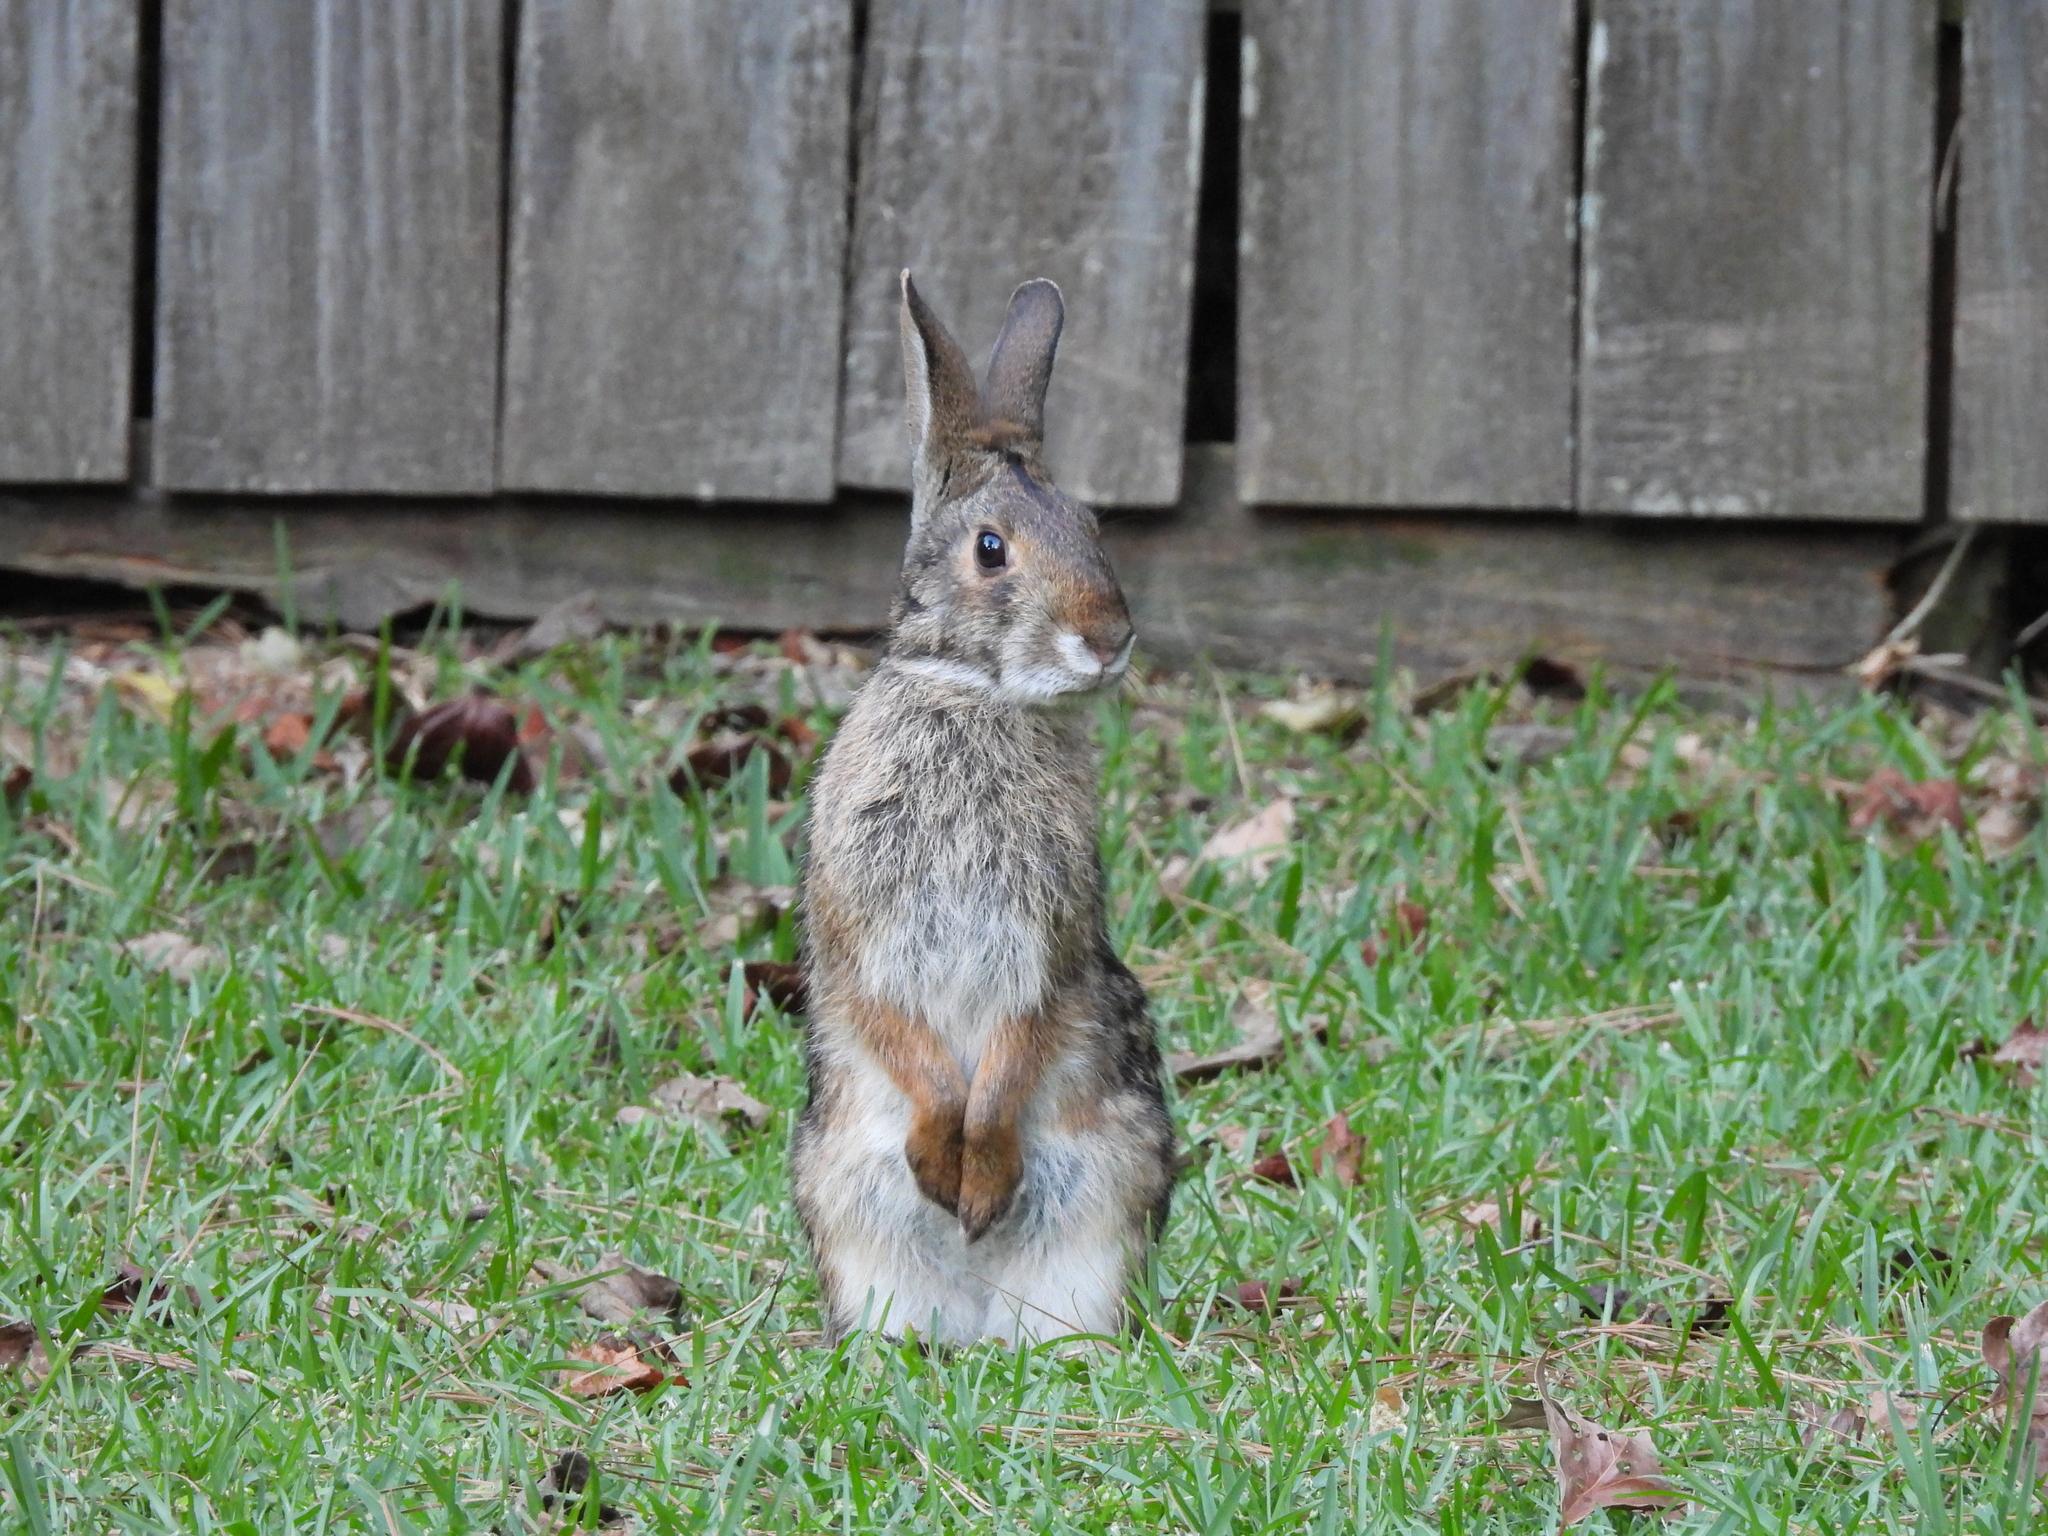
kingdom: Animalia
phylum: Chordata
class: Mammalia
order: Lagomorpha
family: Leporidae
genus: Sylvilagus
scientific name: Sylvilagus aquaticus
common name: Swamp rabbit
